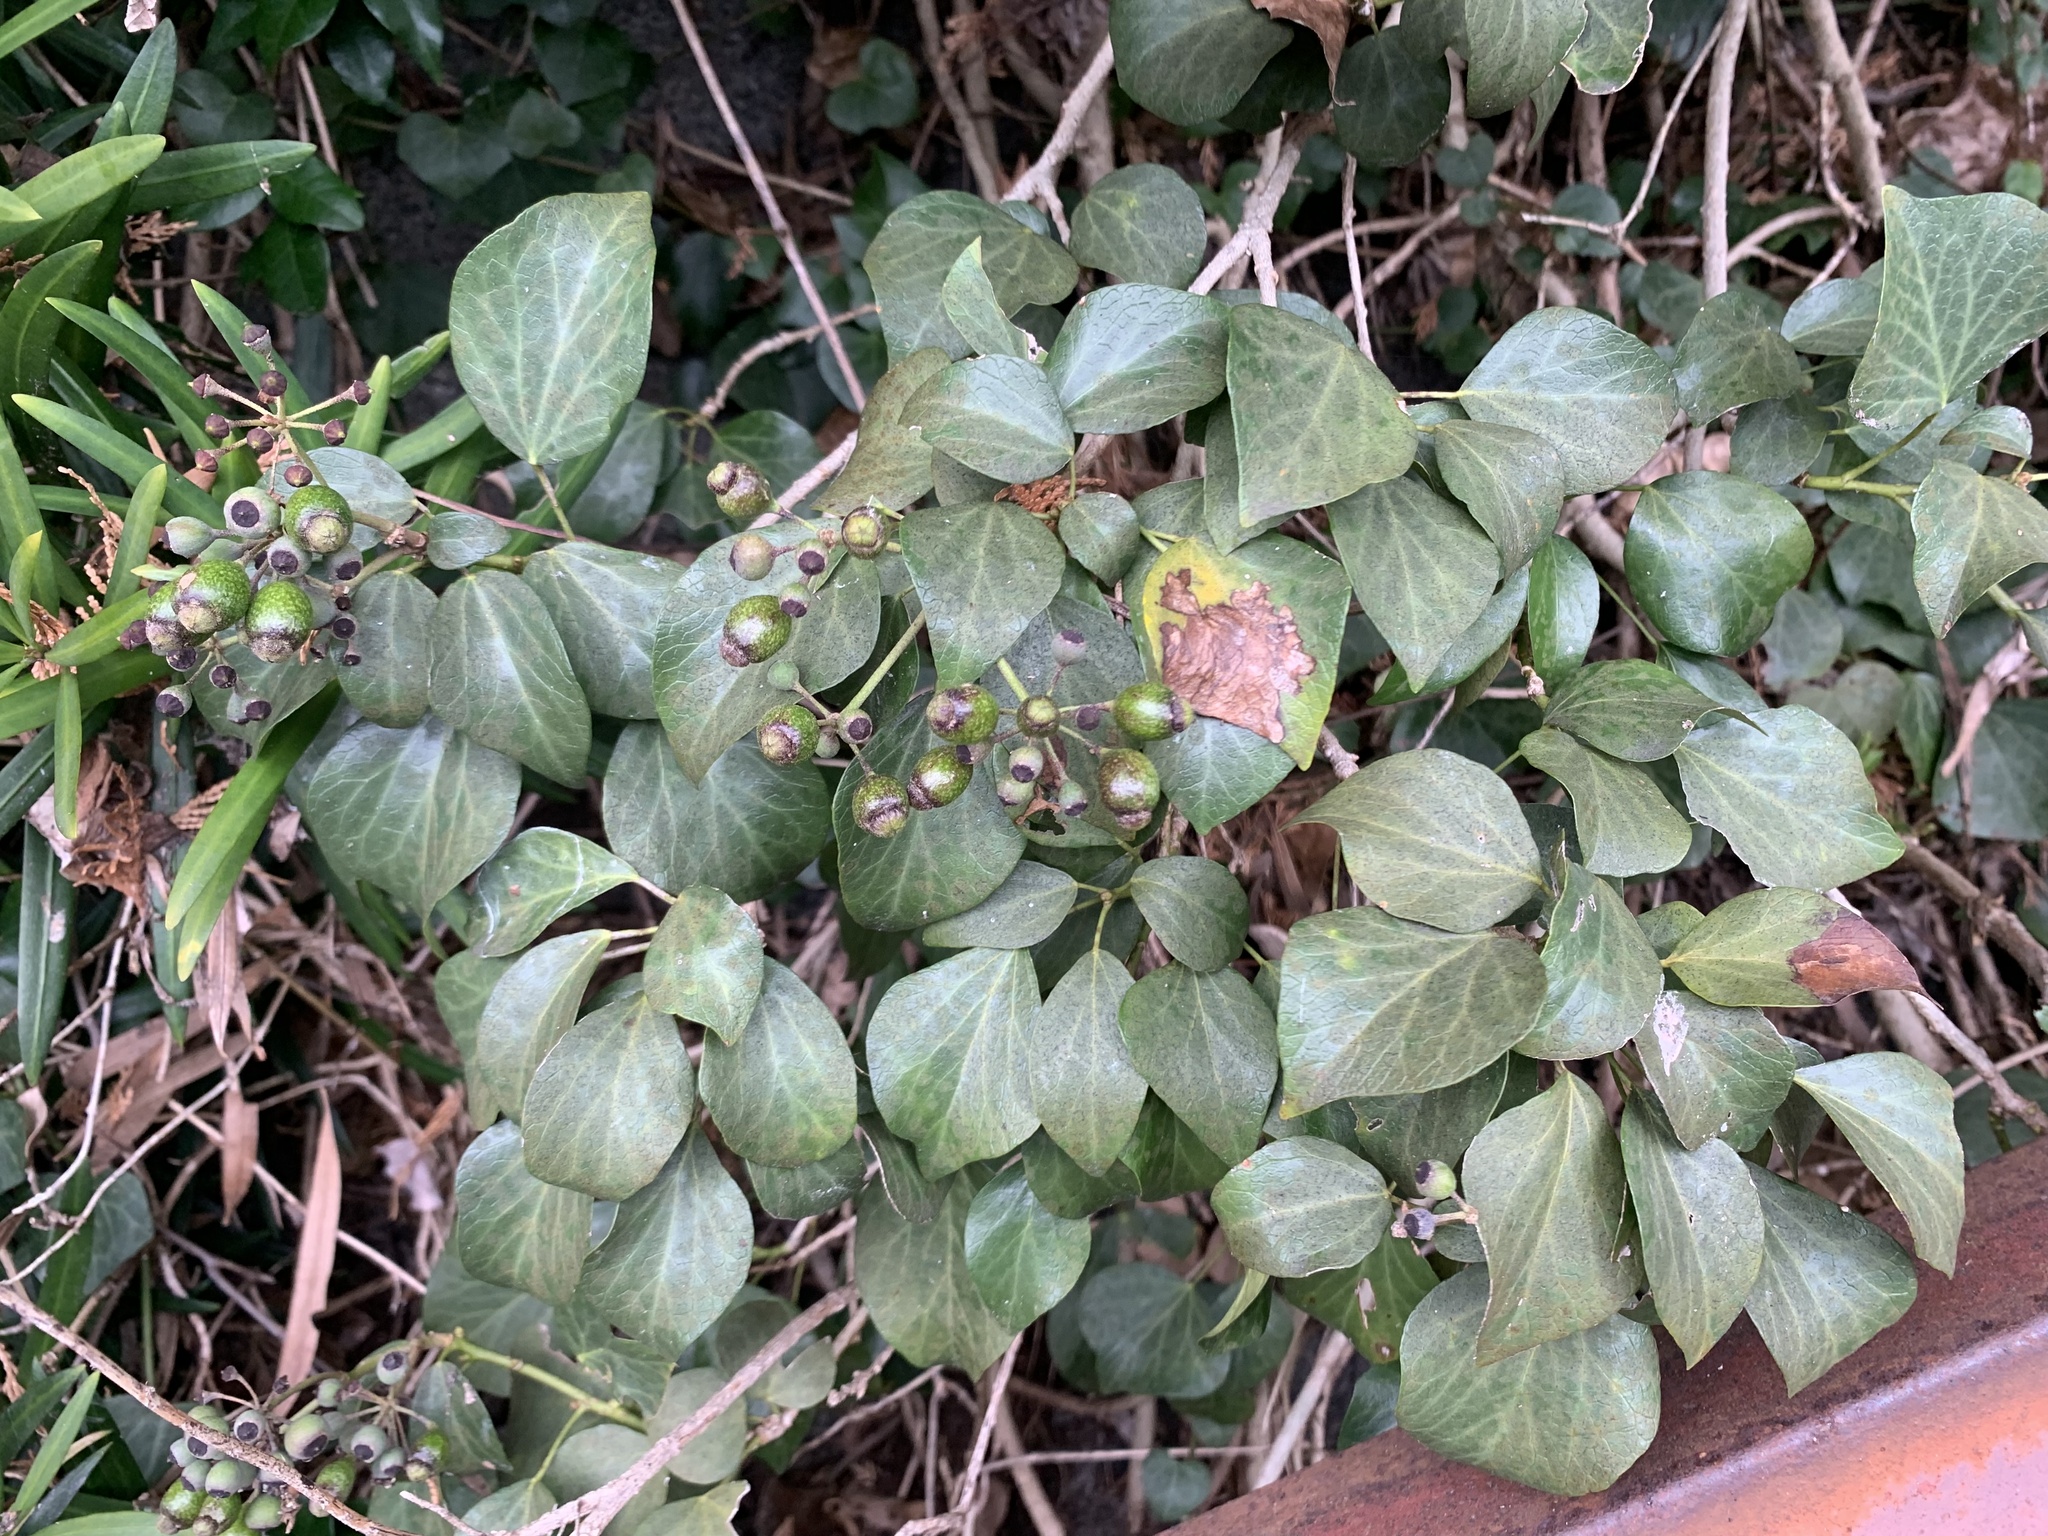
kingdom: Plantae
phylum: Tracheophyta
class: Magnoliopsida
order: Apiales
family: Araliaceae
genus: Hedera
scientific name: Hedera rhombea
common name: Japanese ivy
